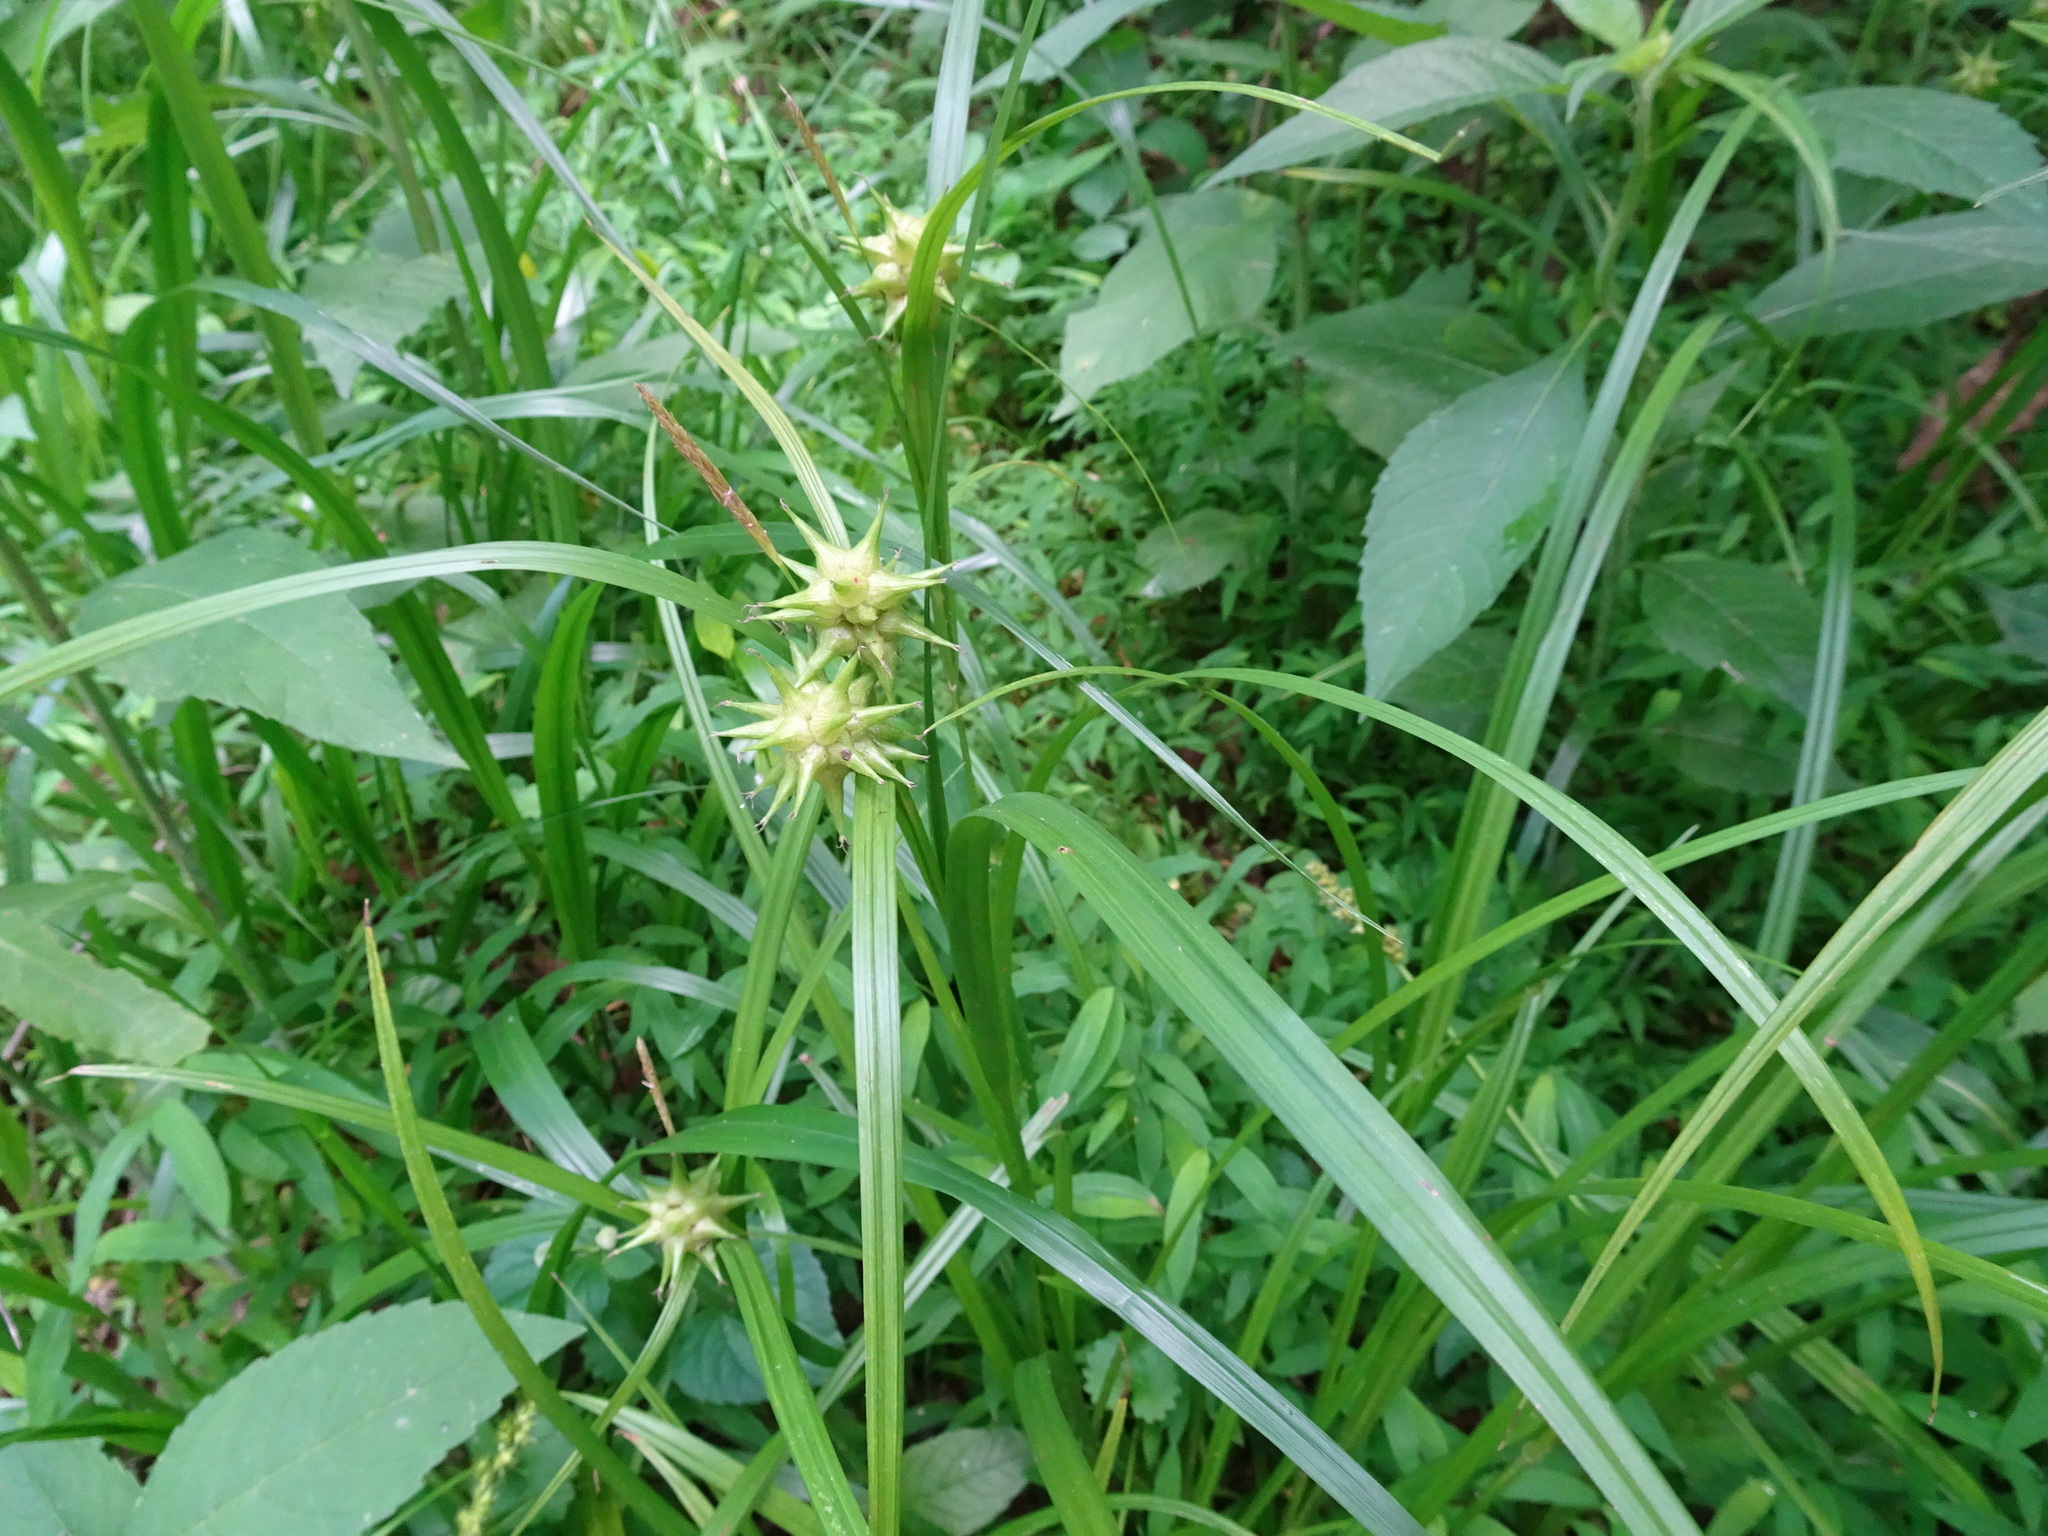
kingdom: Plantae
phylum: Tracheophyta
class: Liliopsida
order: Poales
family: Cyperaceae
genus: Carex
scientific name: Carex grayi
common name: Asa gray's sedge
